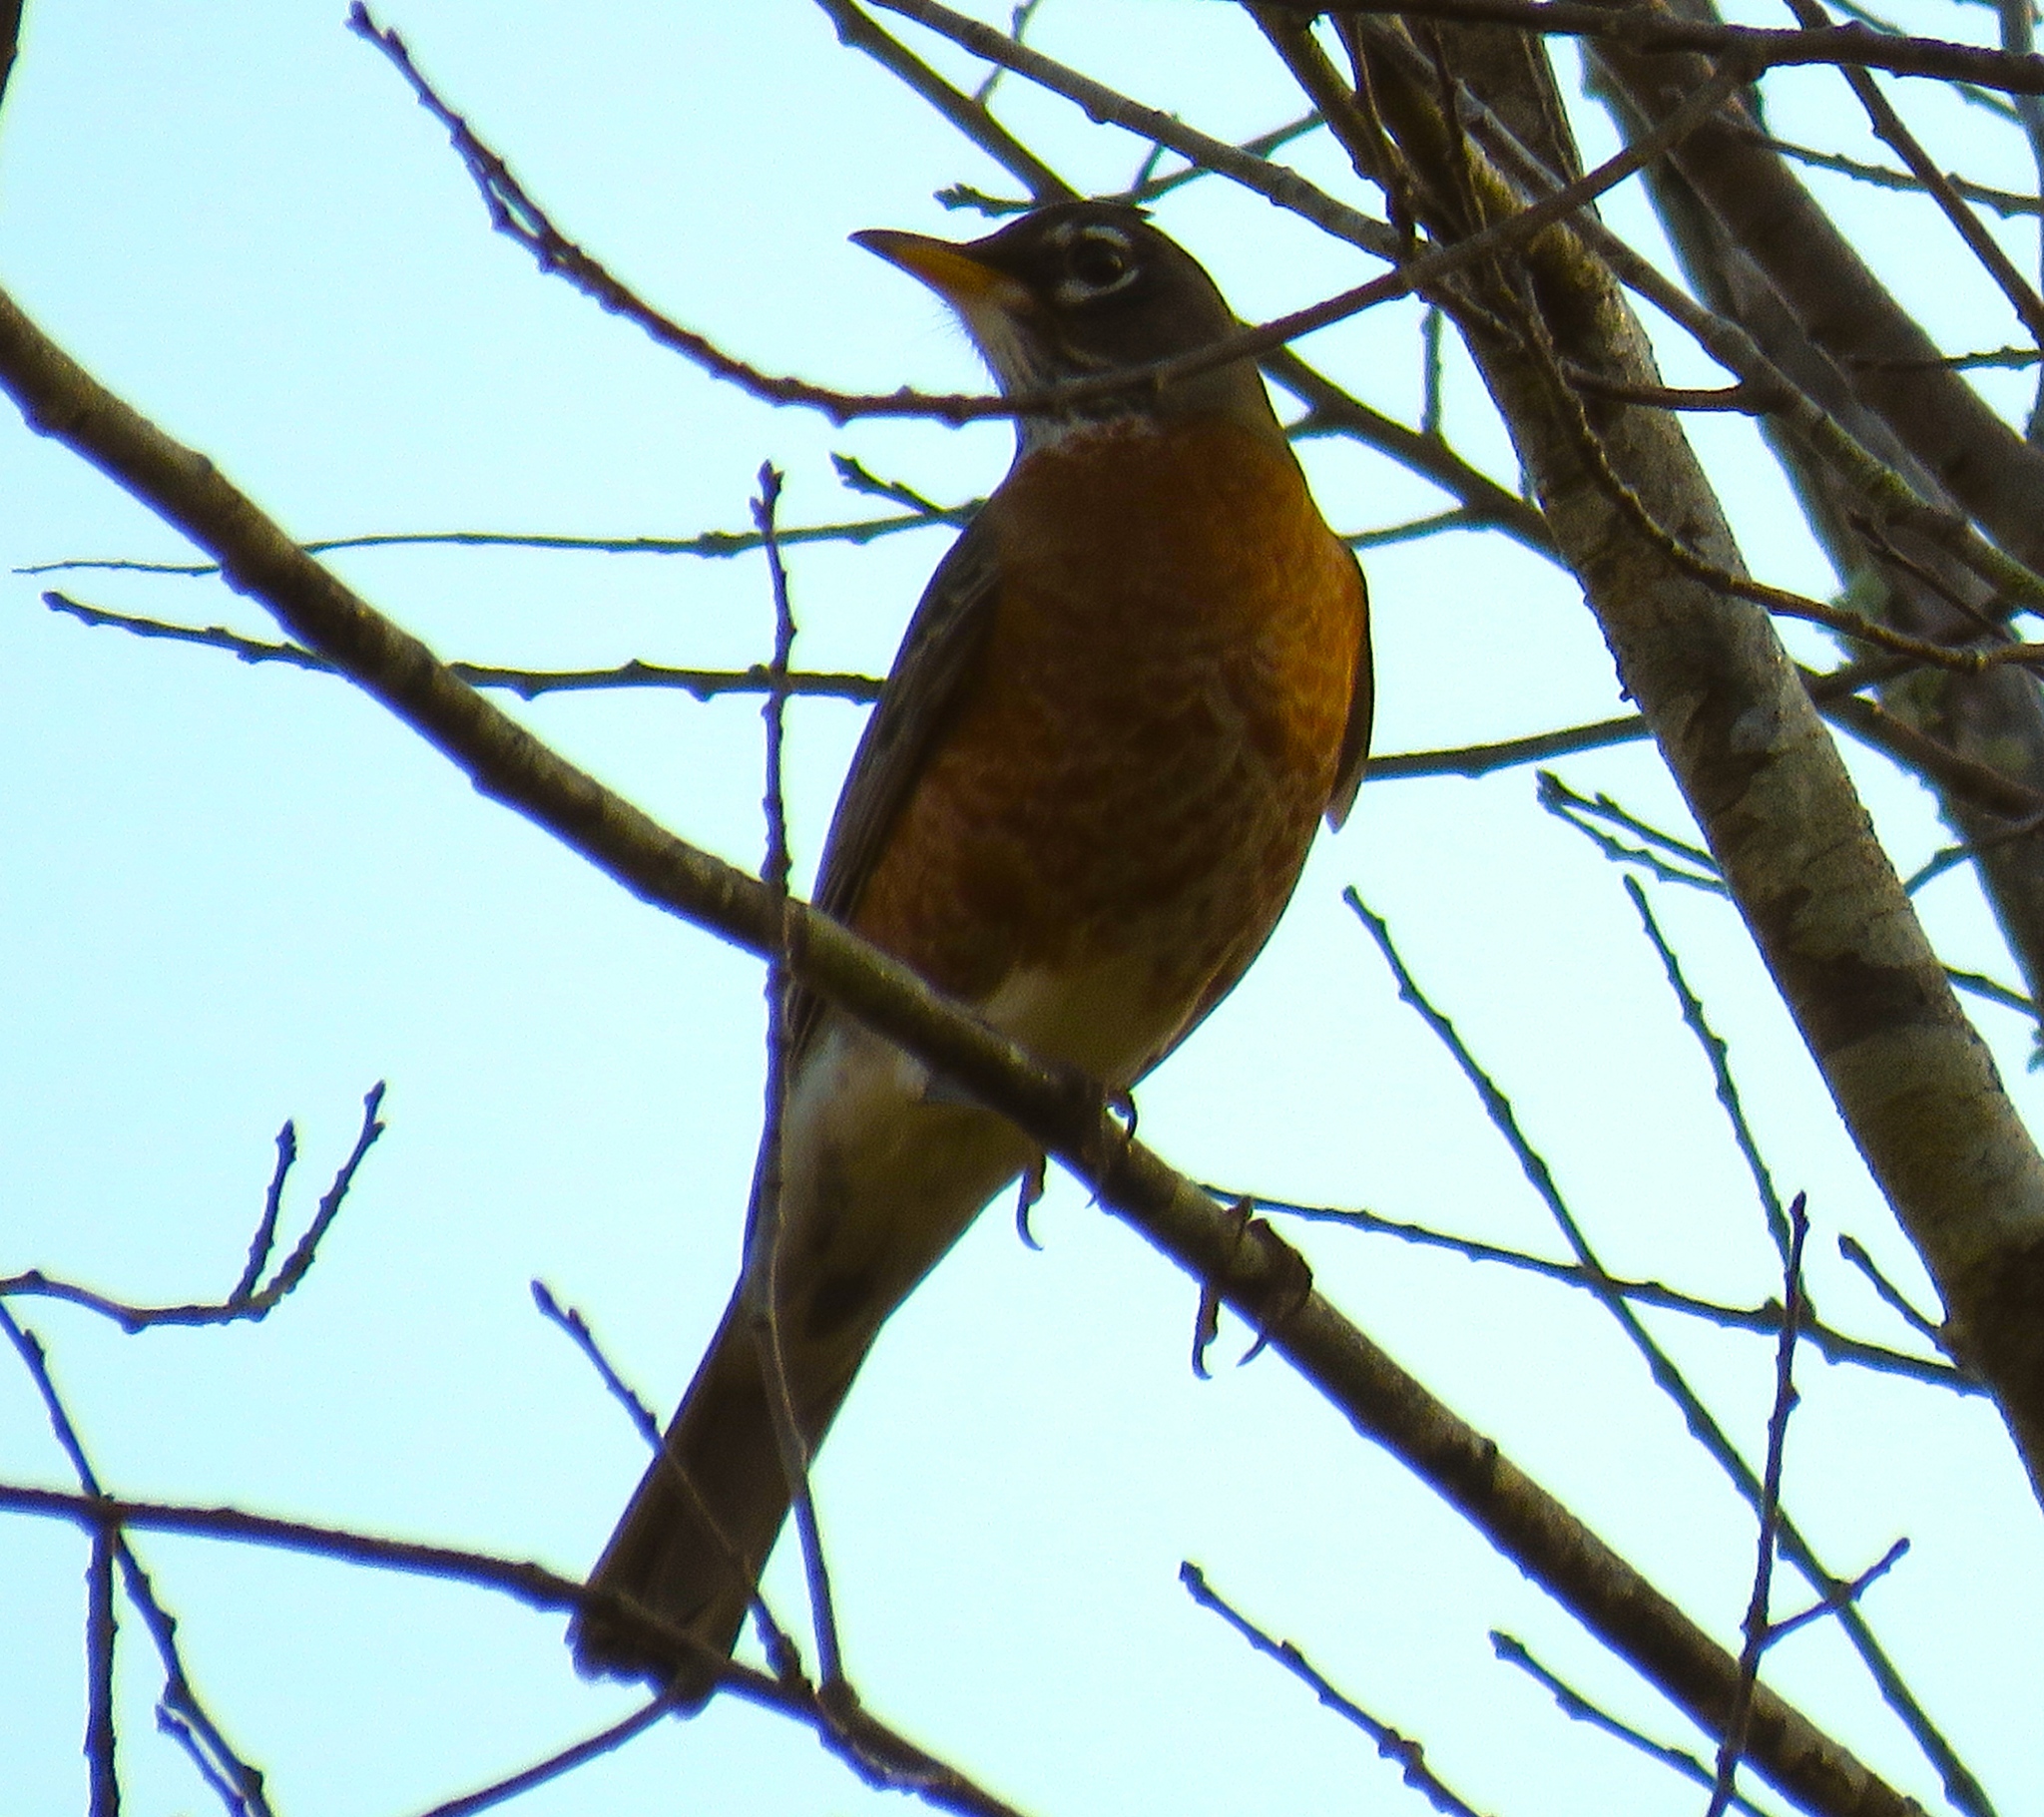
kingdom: Animalia
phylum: Chordata
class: Aves
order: Passeriformes
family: Turdidae
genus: Turdus
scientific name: Turdus migratorius
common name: American robin
